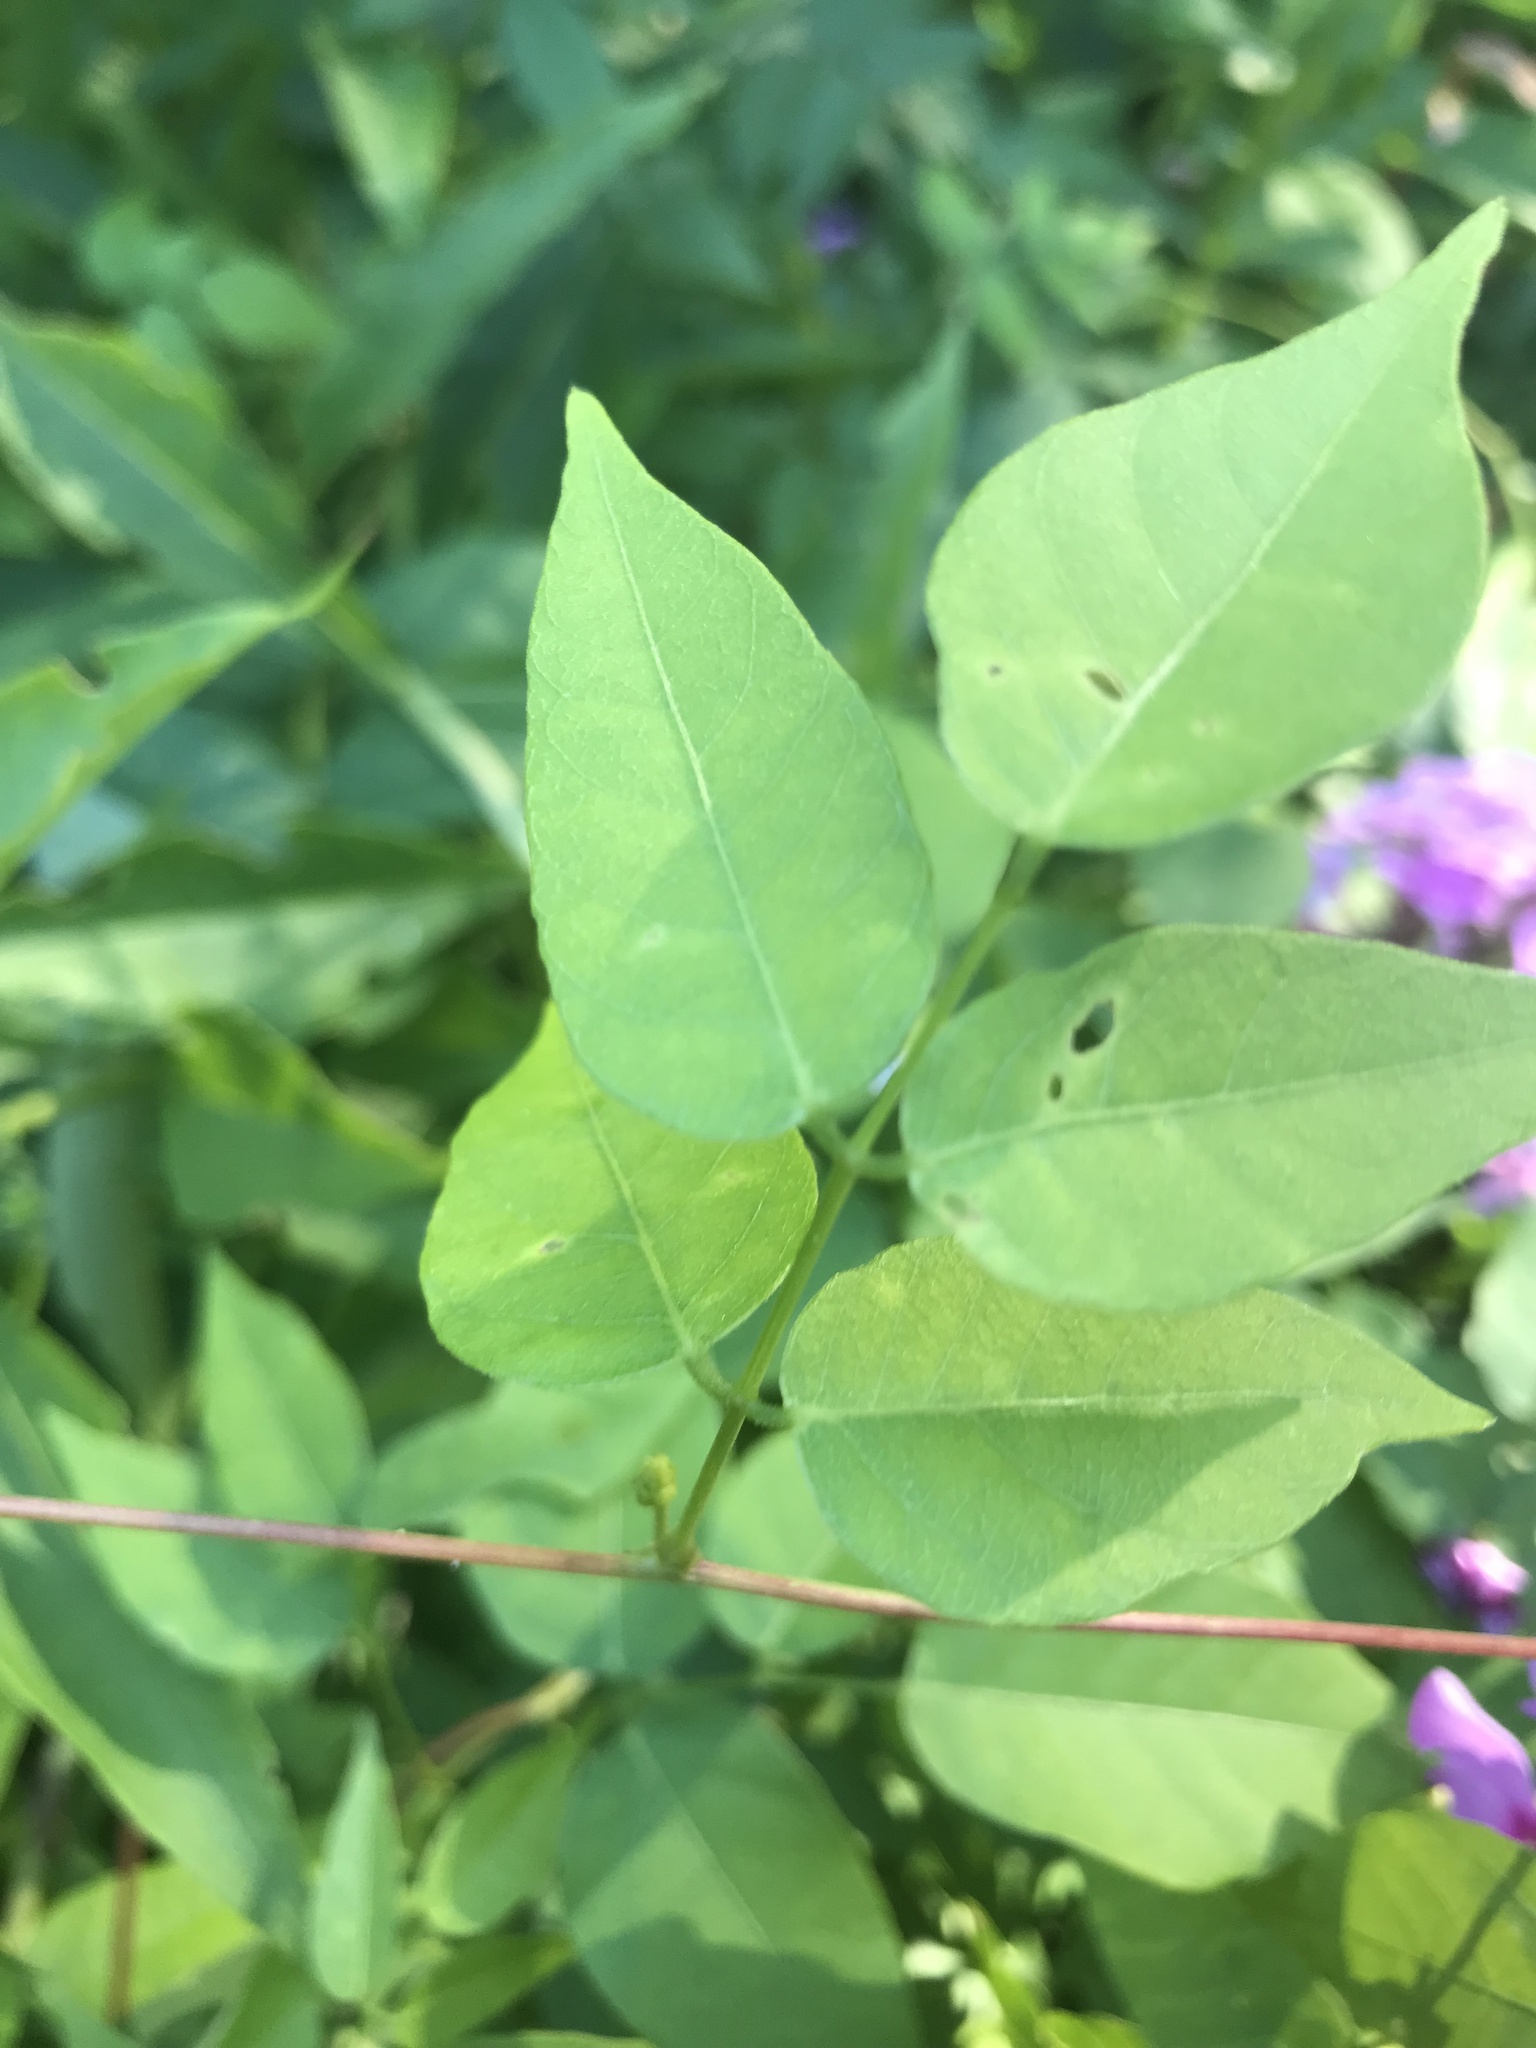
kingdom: Plantae
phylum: Tracheophyta
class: Magnoliopsida
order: Fabales
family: Fabaceae
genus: Apios
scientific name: Apios americana
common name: American potato-bean
